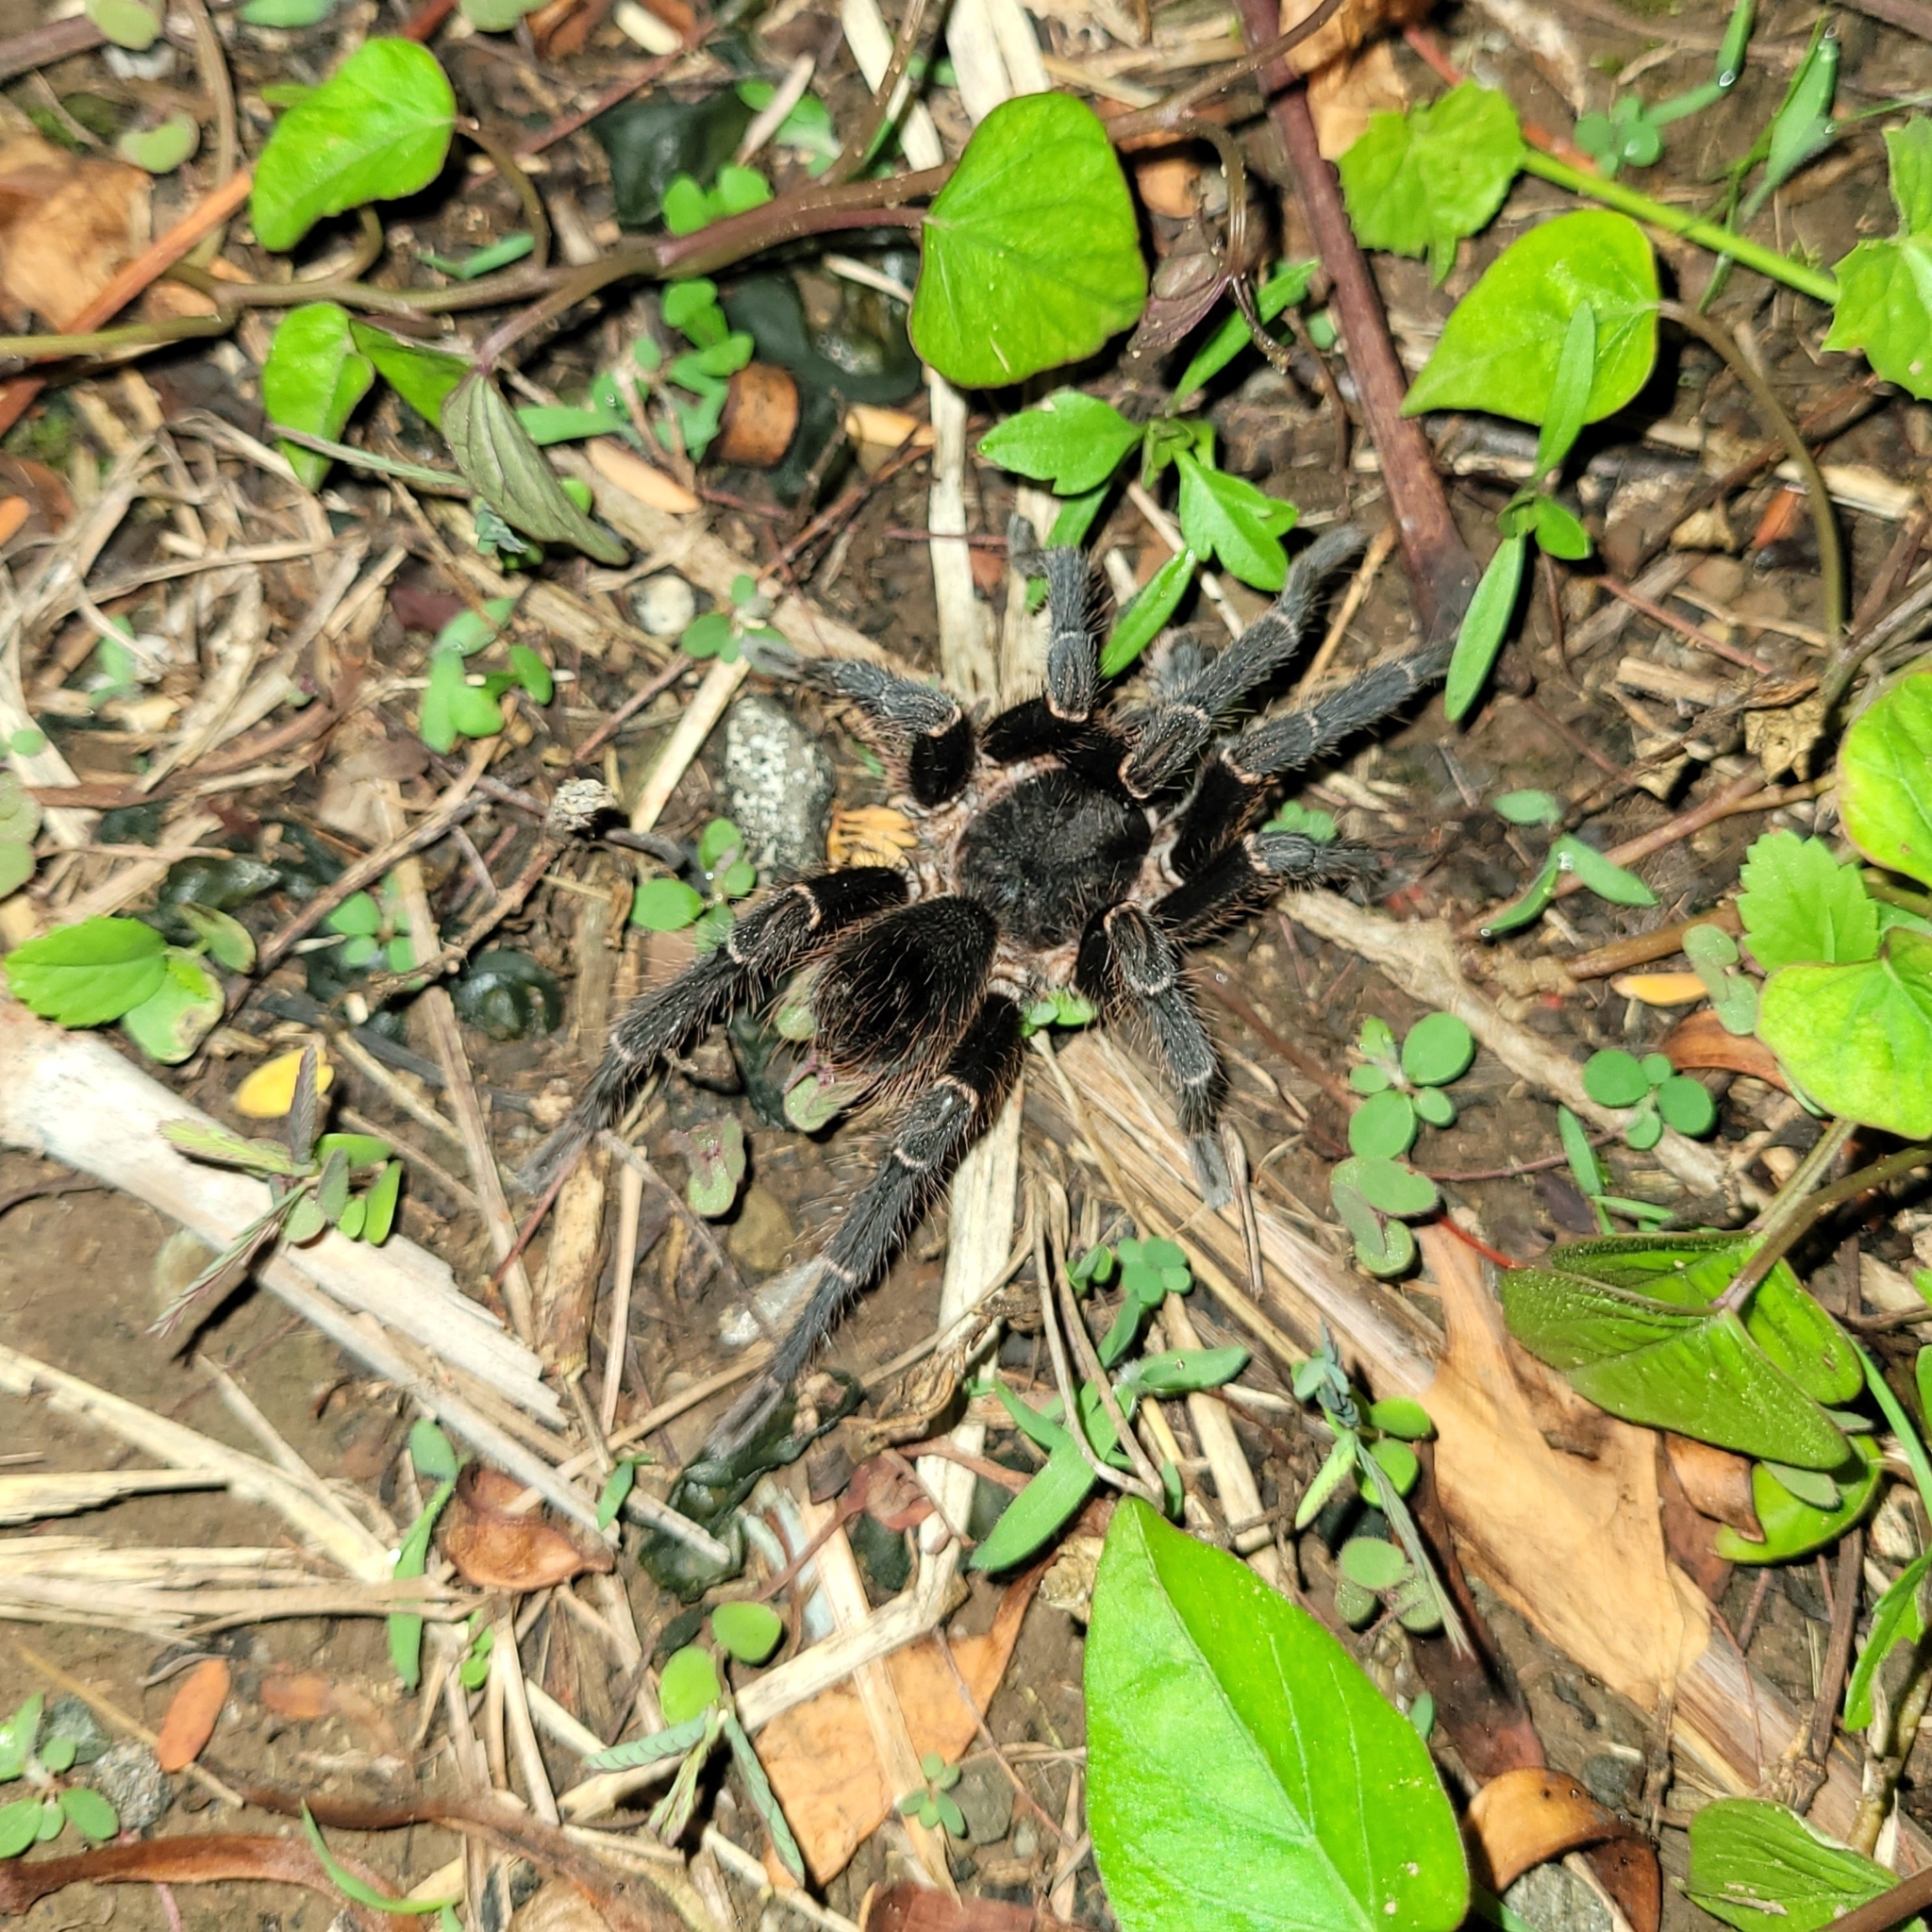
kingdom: Animalia
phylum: Arthropoda
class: Arachnida
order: Araneae
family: Theraphosidae
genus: Cyrtopholis
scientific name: Cyrtopholis portoricae
